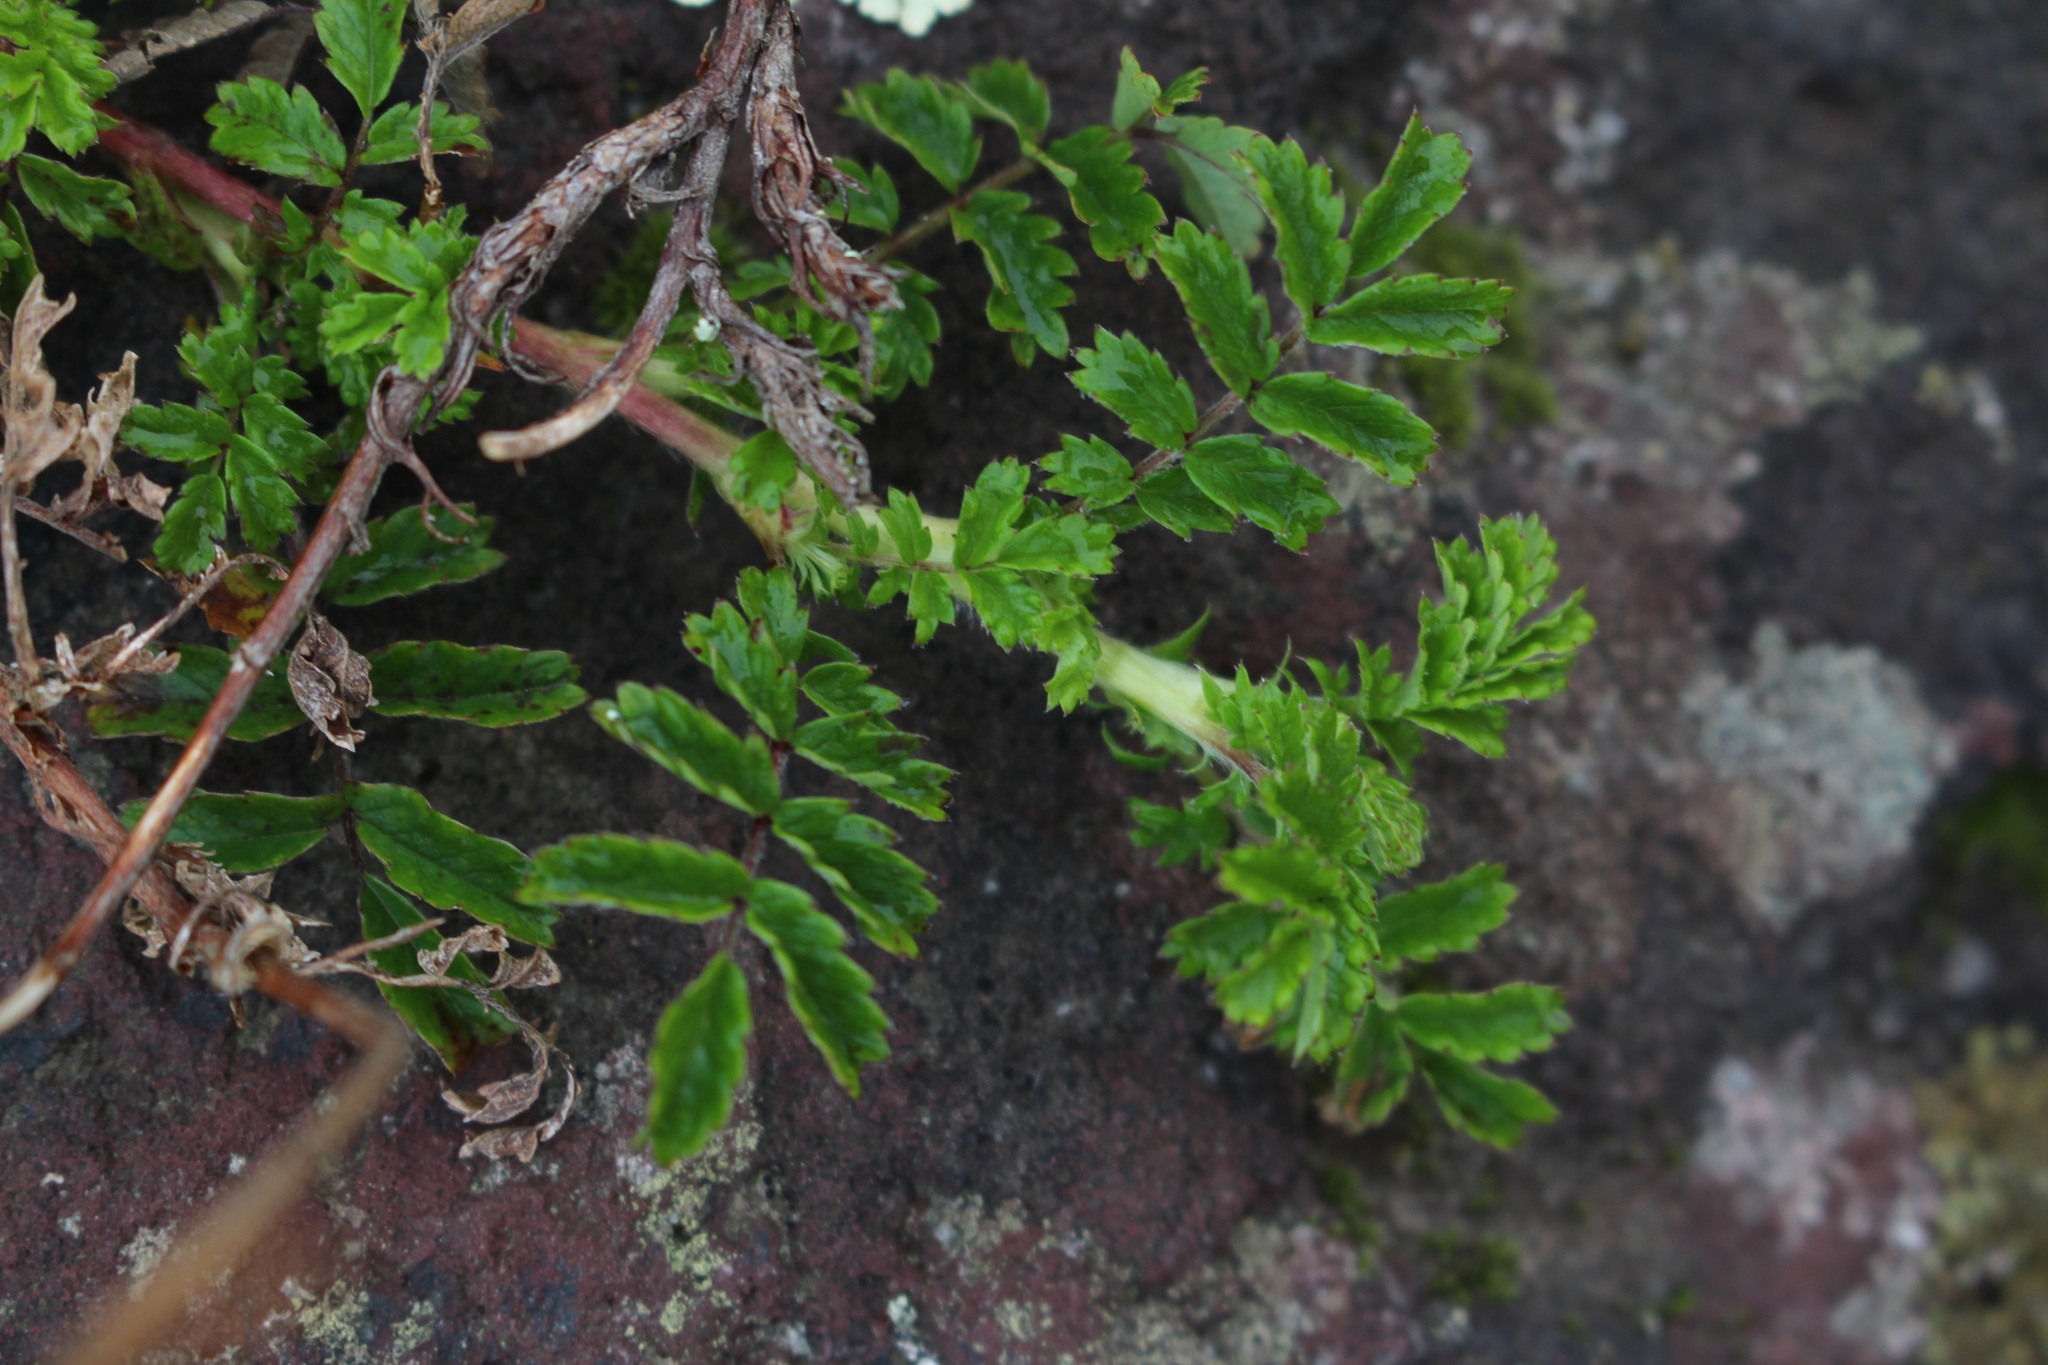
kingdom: Plantae
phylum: Tracheophyta
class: Magnoliopsida
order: Rosales
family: Rosaceae
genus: Acaena
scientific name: Acaena novae-zelandiae
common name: Pirri-pirri-bur
